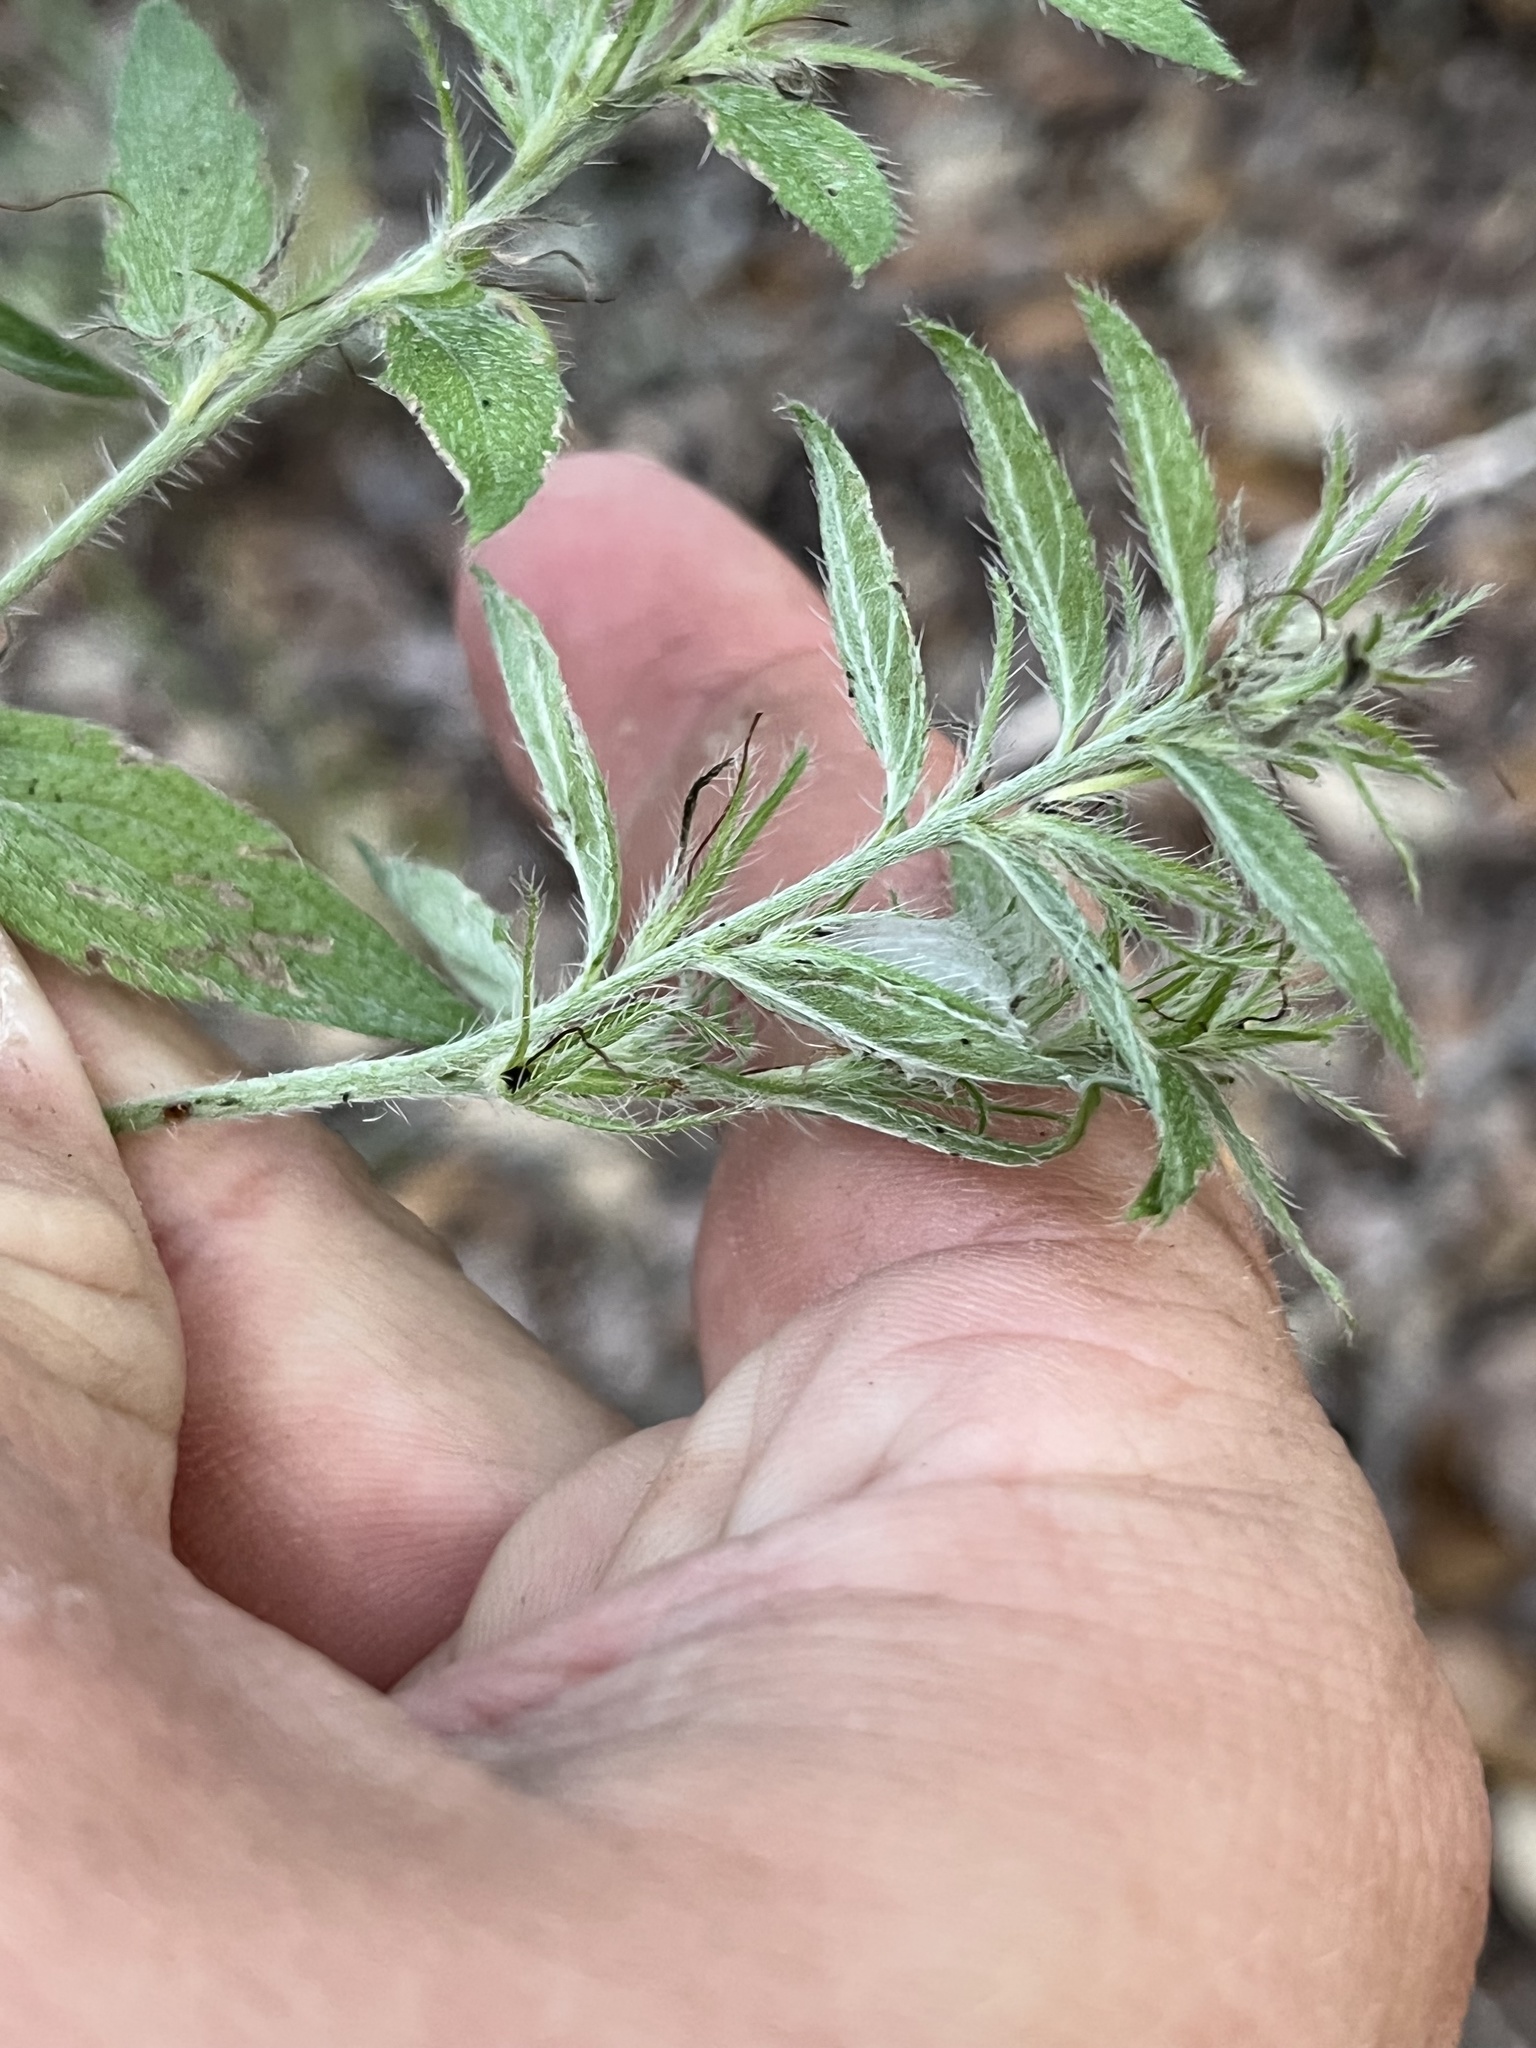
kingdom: Plantae
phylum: Tracheophyta
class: Magnoliopsida
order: Boraginales
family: Boraginaceae
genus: Lithospermum
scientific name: Lithospermum caroliniense
